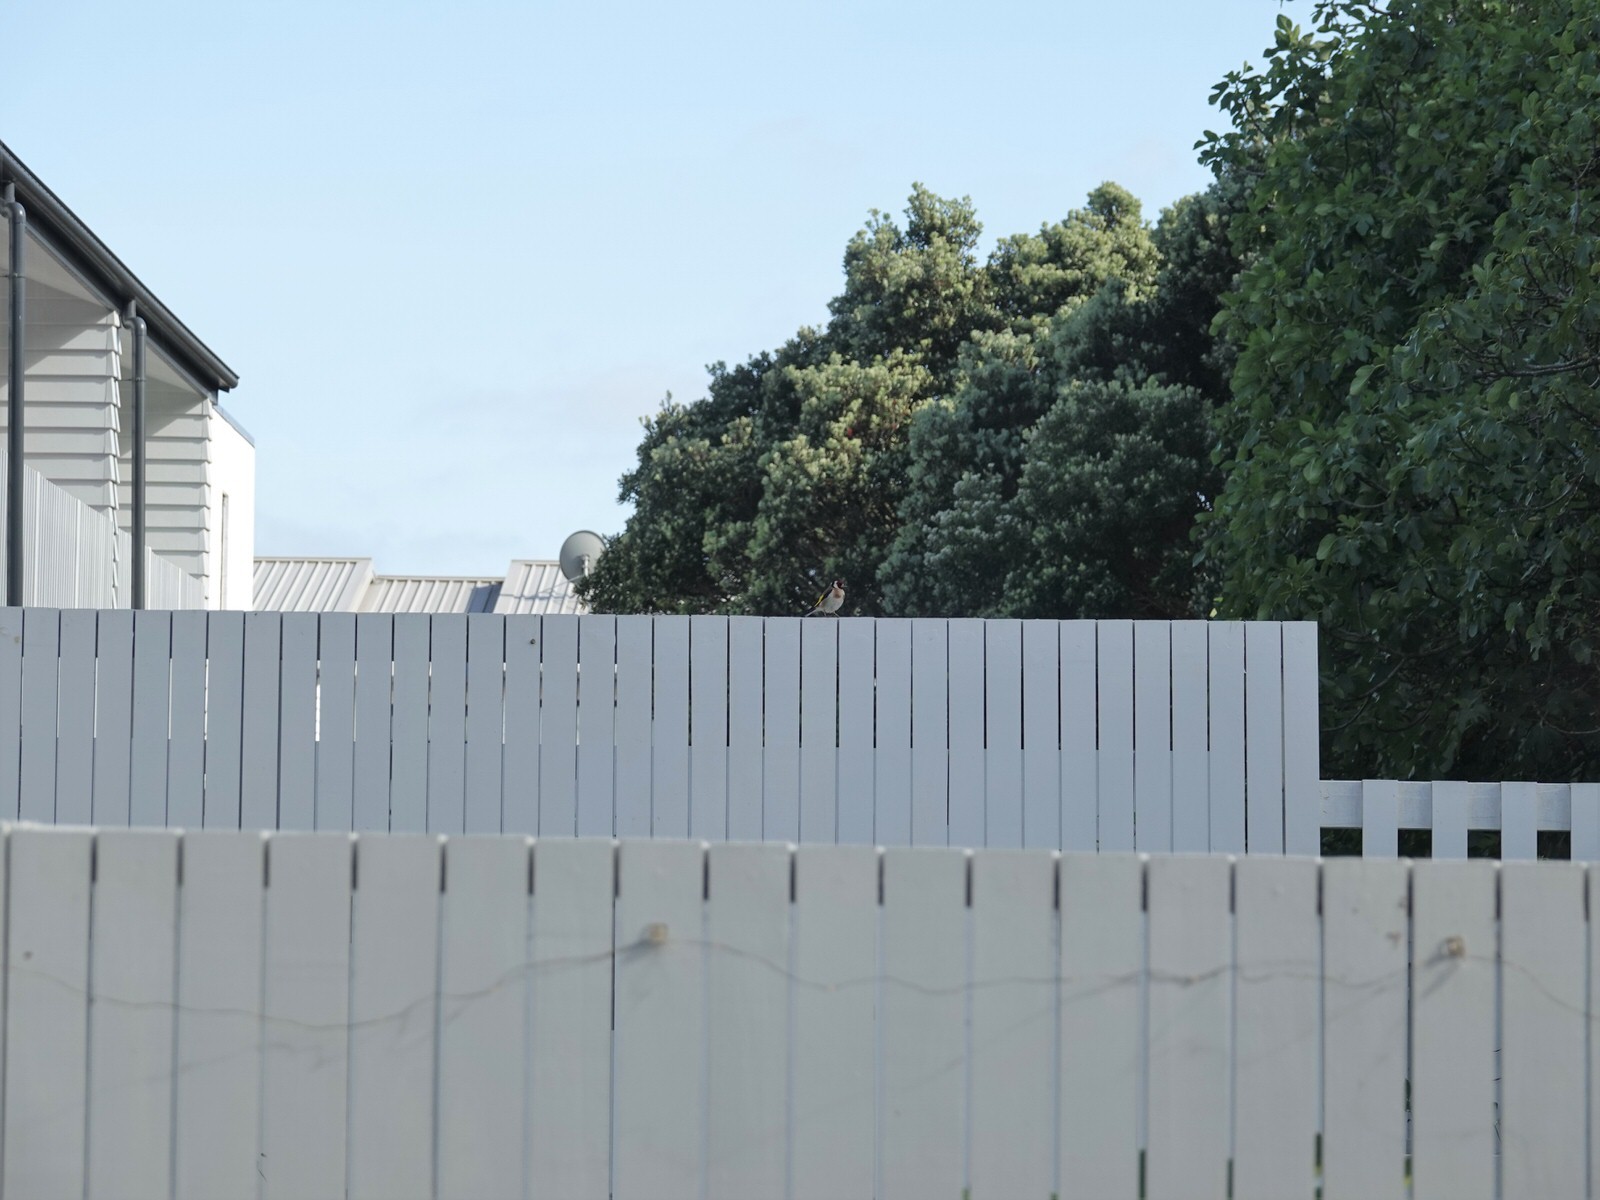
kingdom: Animalia
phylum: Chordata
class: Aves
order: Passeriformes
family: Fringillidae
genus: Carduelis
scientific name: Carduelis carduelis
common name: European goldfinch
